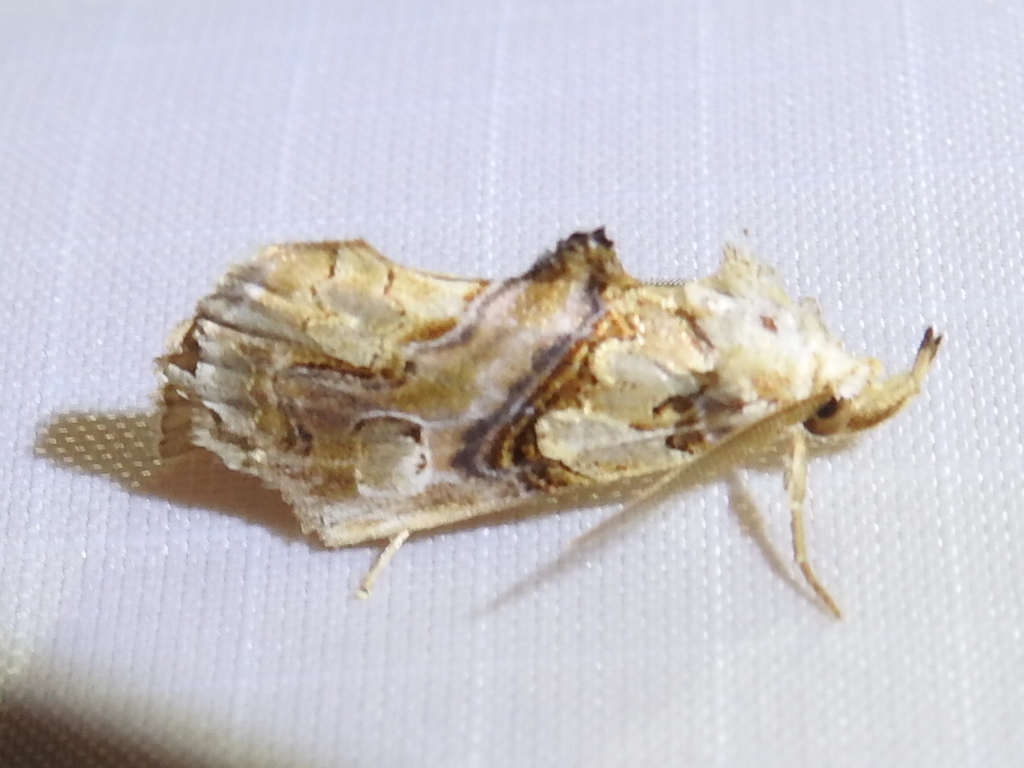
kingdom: Animalia
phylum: Arthropoda
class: Insecta
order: Lepidoptera
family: Erebidae
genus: Plusiodonta
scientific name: Plusiodonta compressipalpis
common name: Moonseed moth
